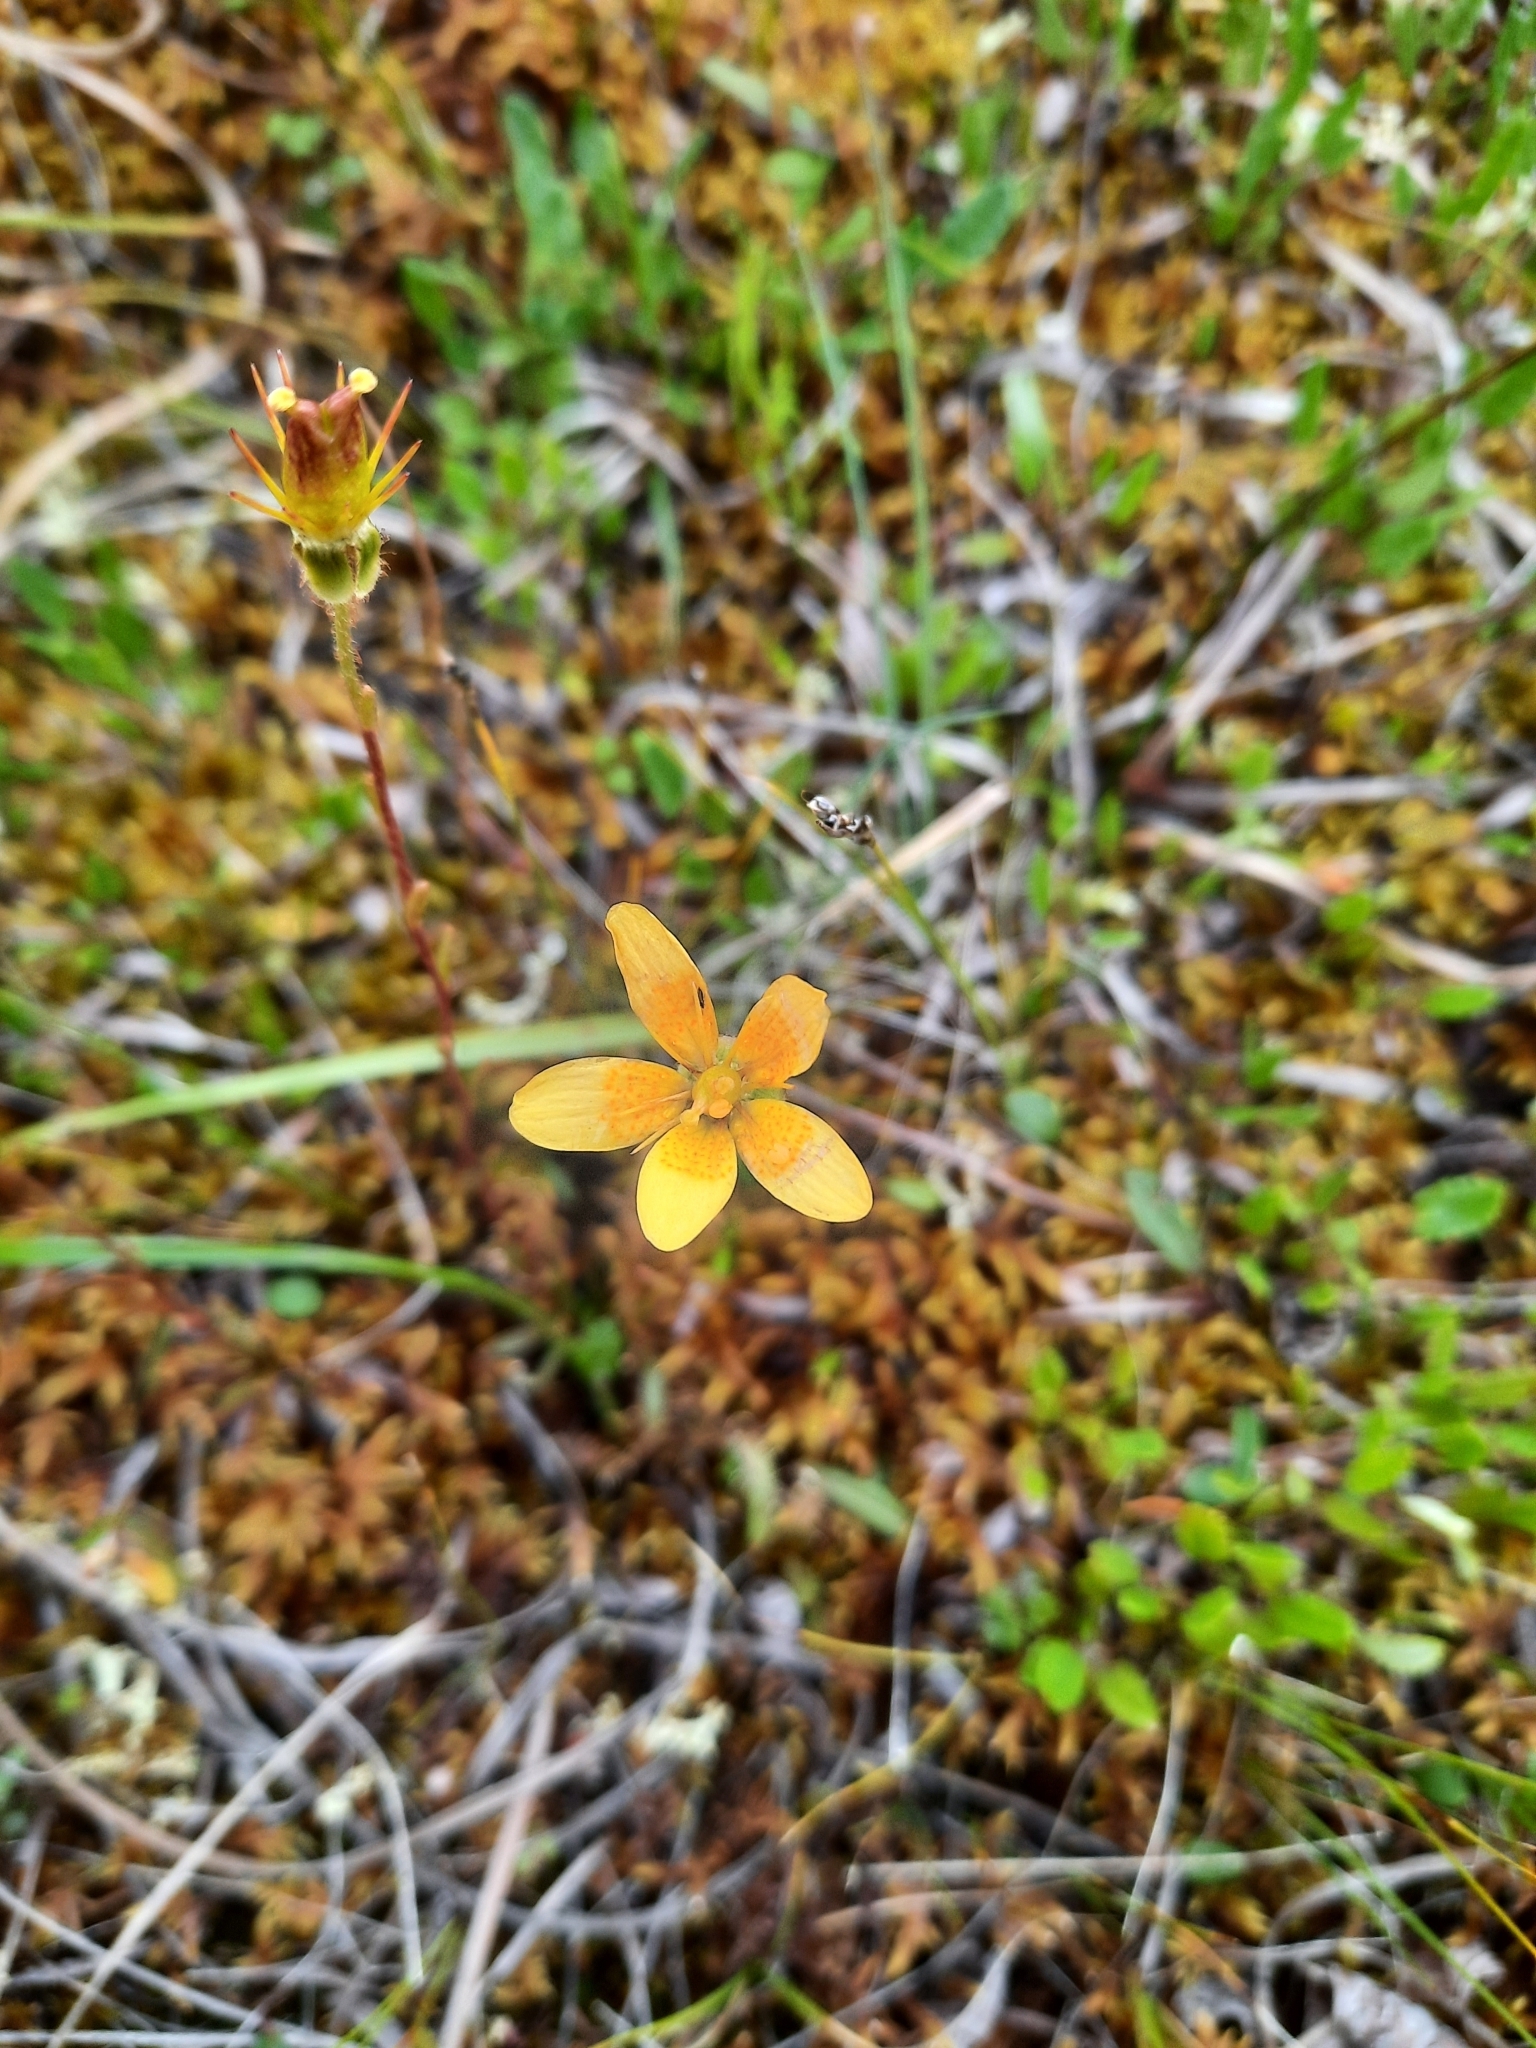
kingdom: Plantae
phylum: Tracheophyta
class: Magnoliopsida
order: Saxifragales
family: Saxifragaceae
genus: Saxifraga
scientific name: Saxifraga hirculus
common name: Yellow marsh saxifrage
